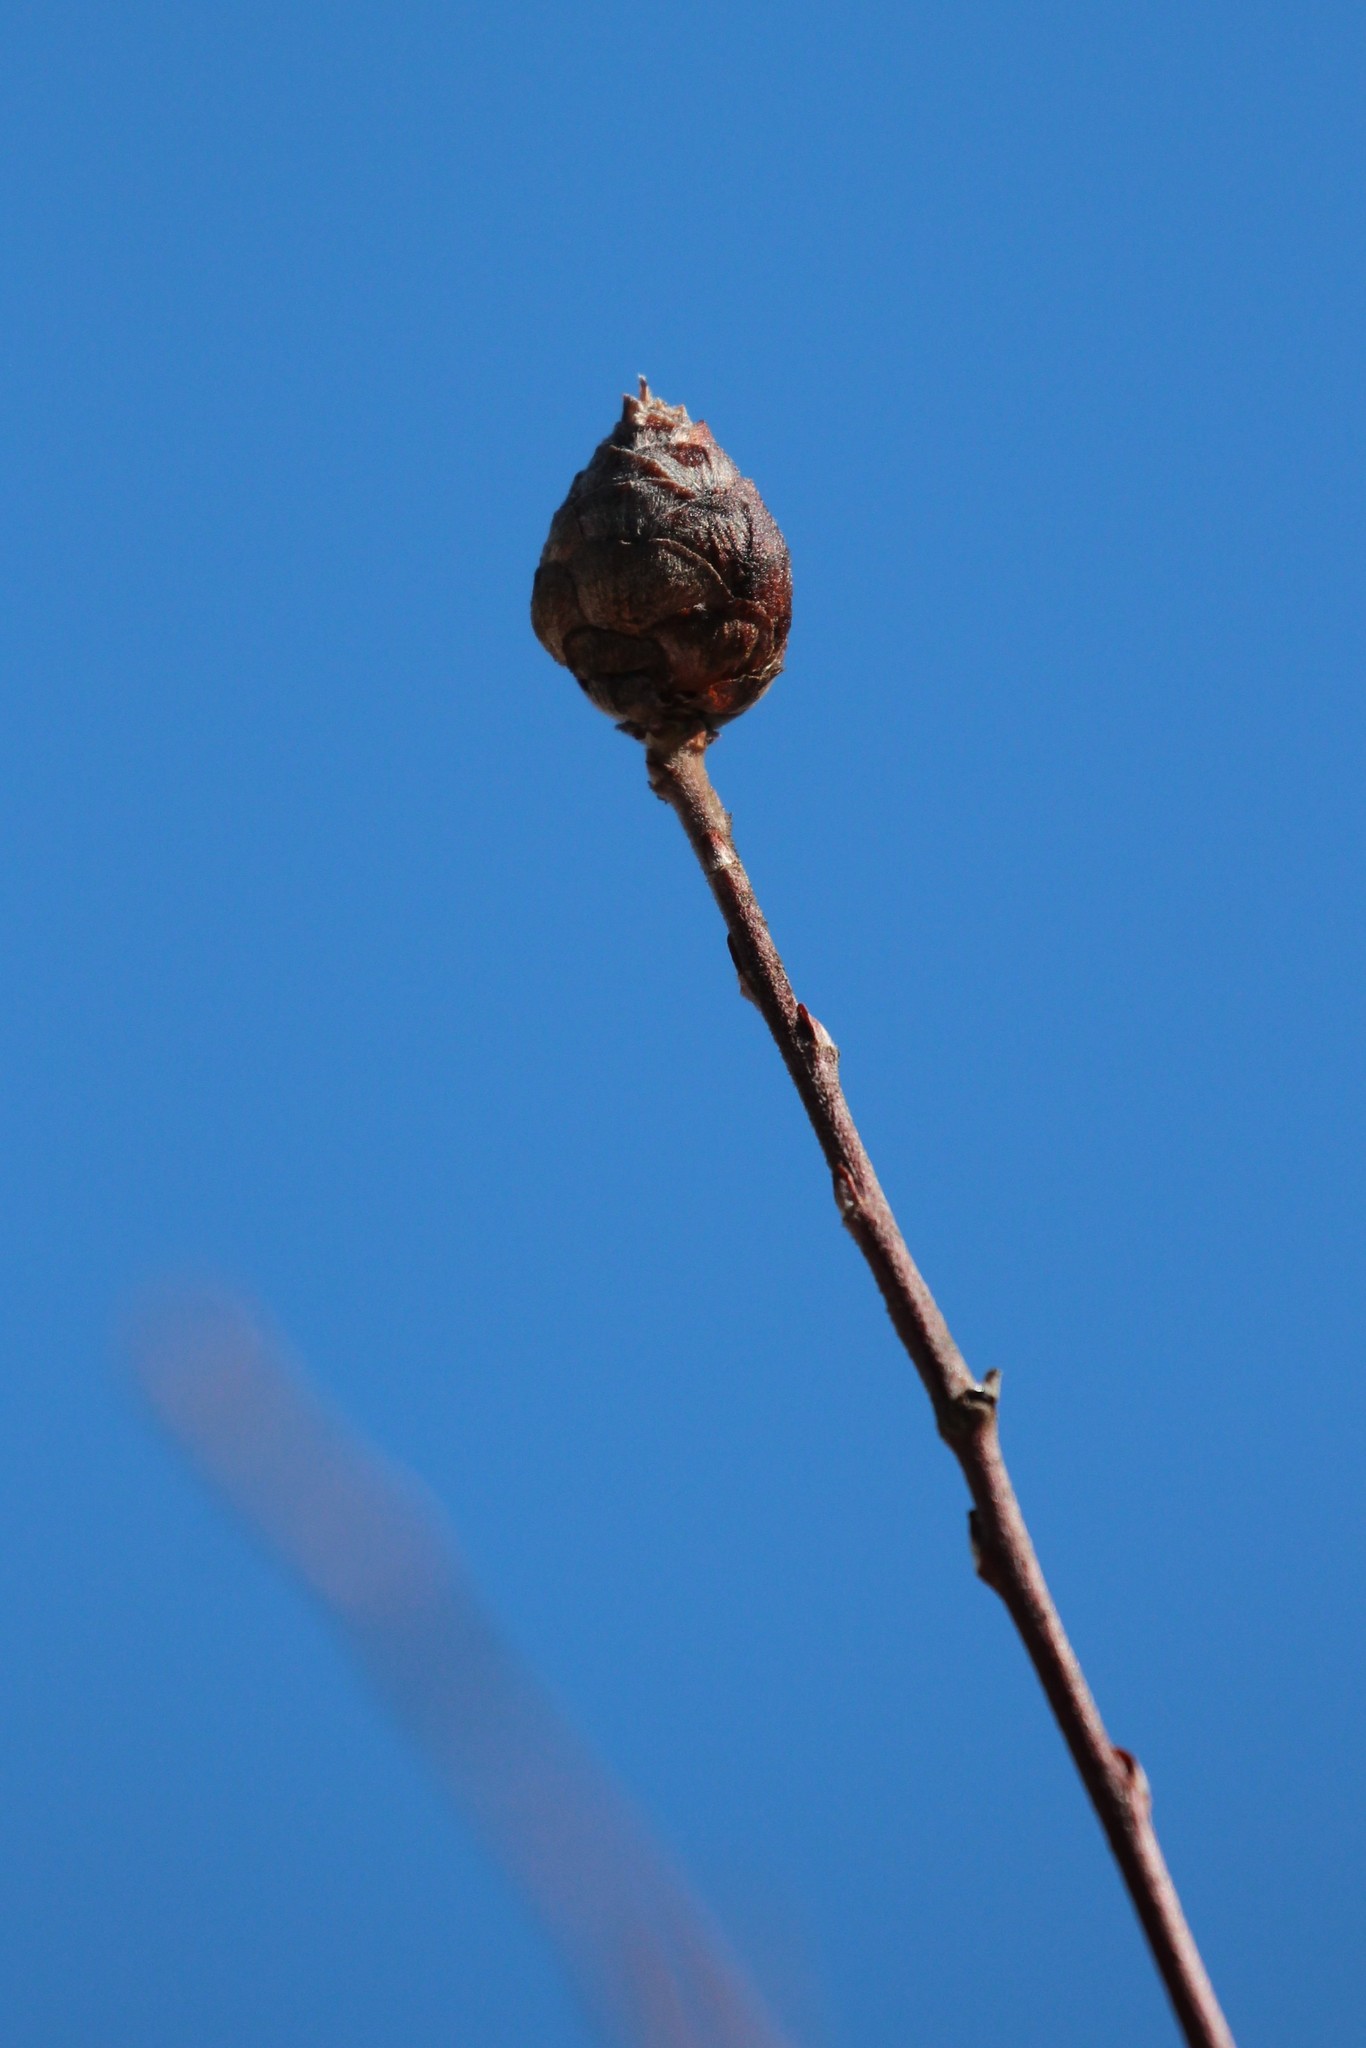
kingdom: Animalia
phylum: Arthropoda
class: Insecta
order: Diptera
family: Cecidomyiidae
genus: Rabdophaga
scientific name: Rabdophaga strobiloides
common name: Willow pinecone gall midge
